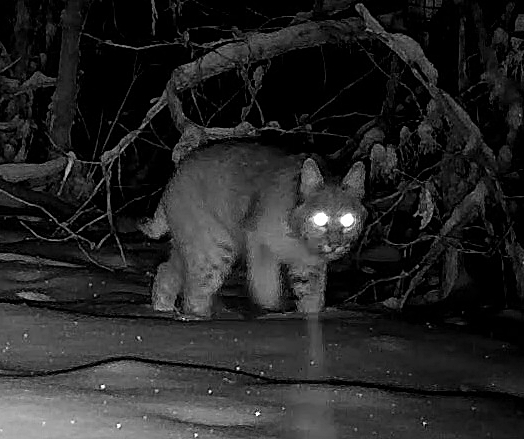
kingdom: Animalia
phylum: Chordata
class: Mammalia
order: Carnivora
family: Felidae
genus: Lynx
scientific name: Lynx rufus
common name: Bobcat
